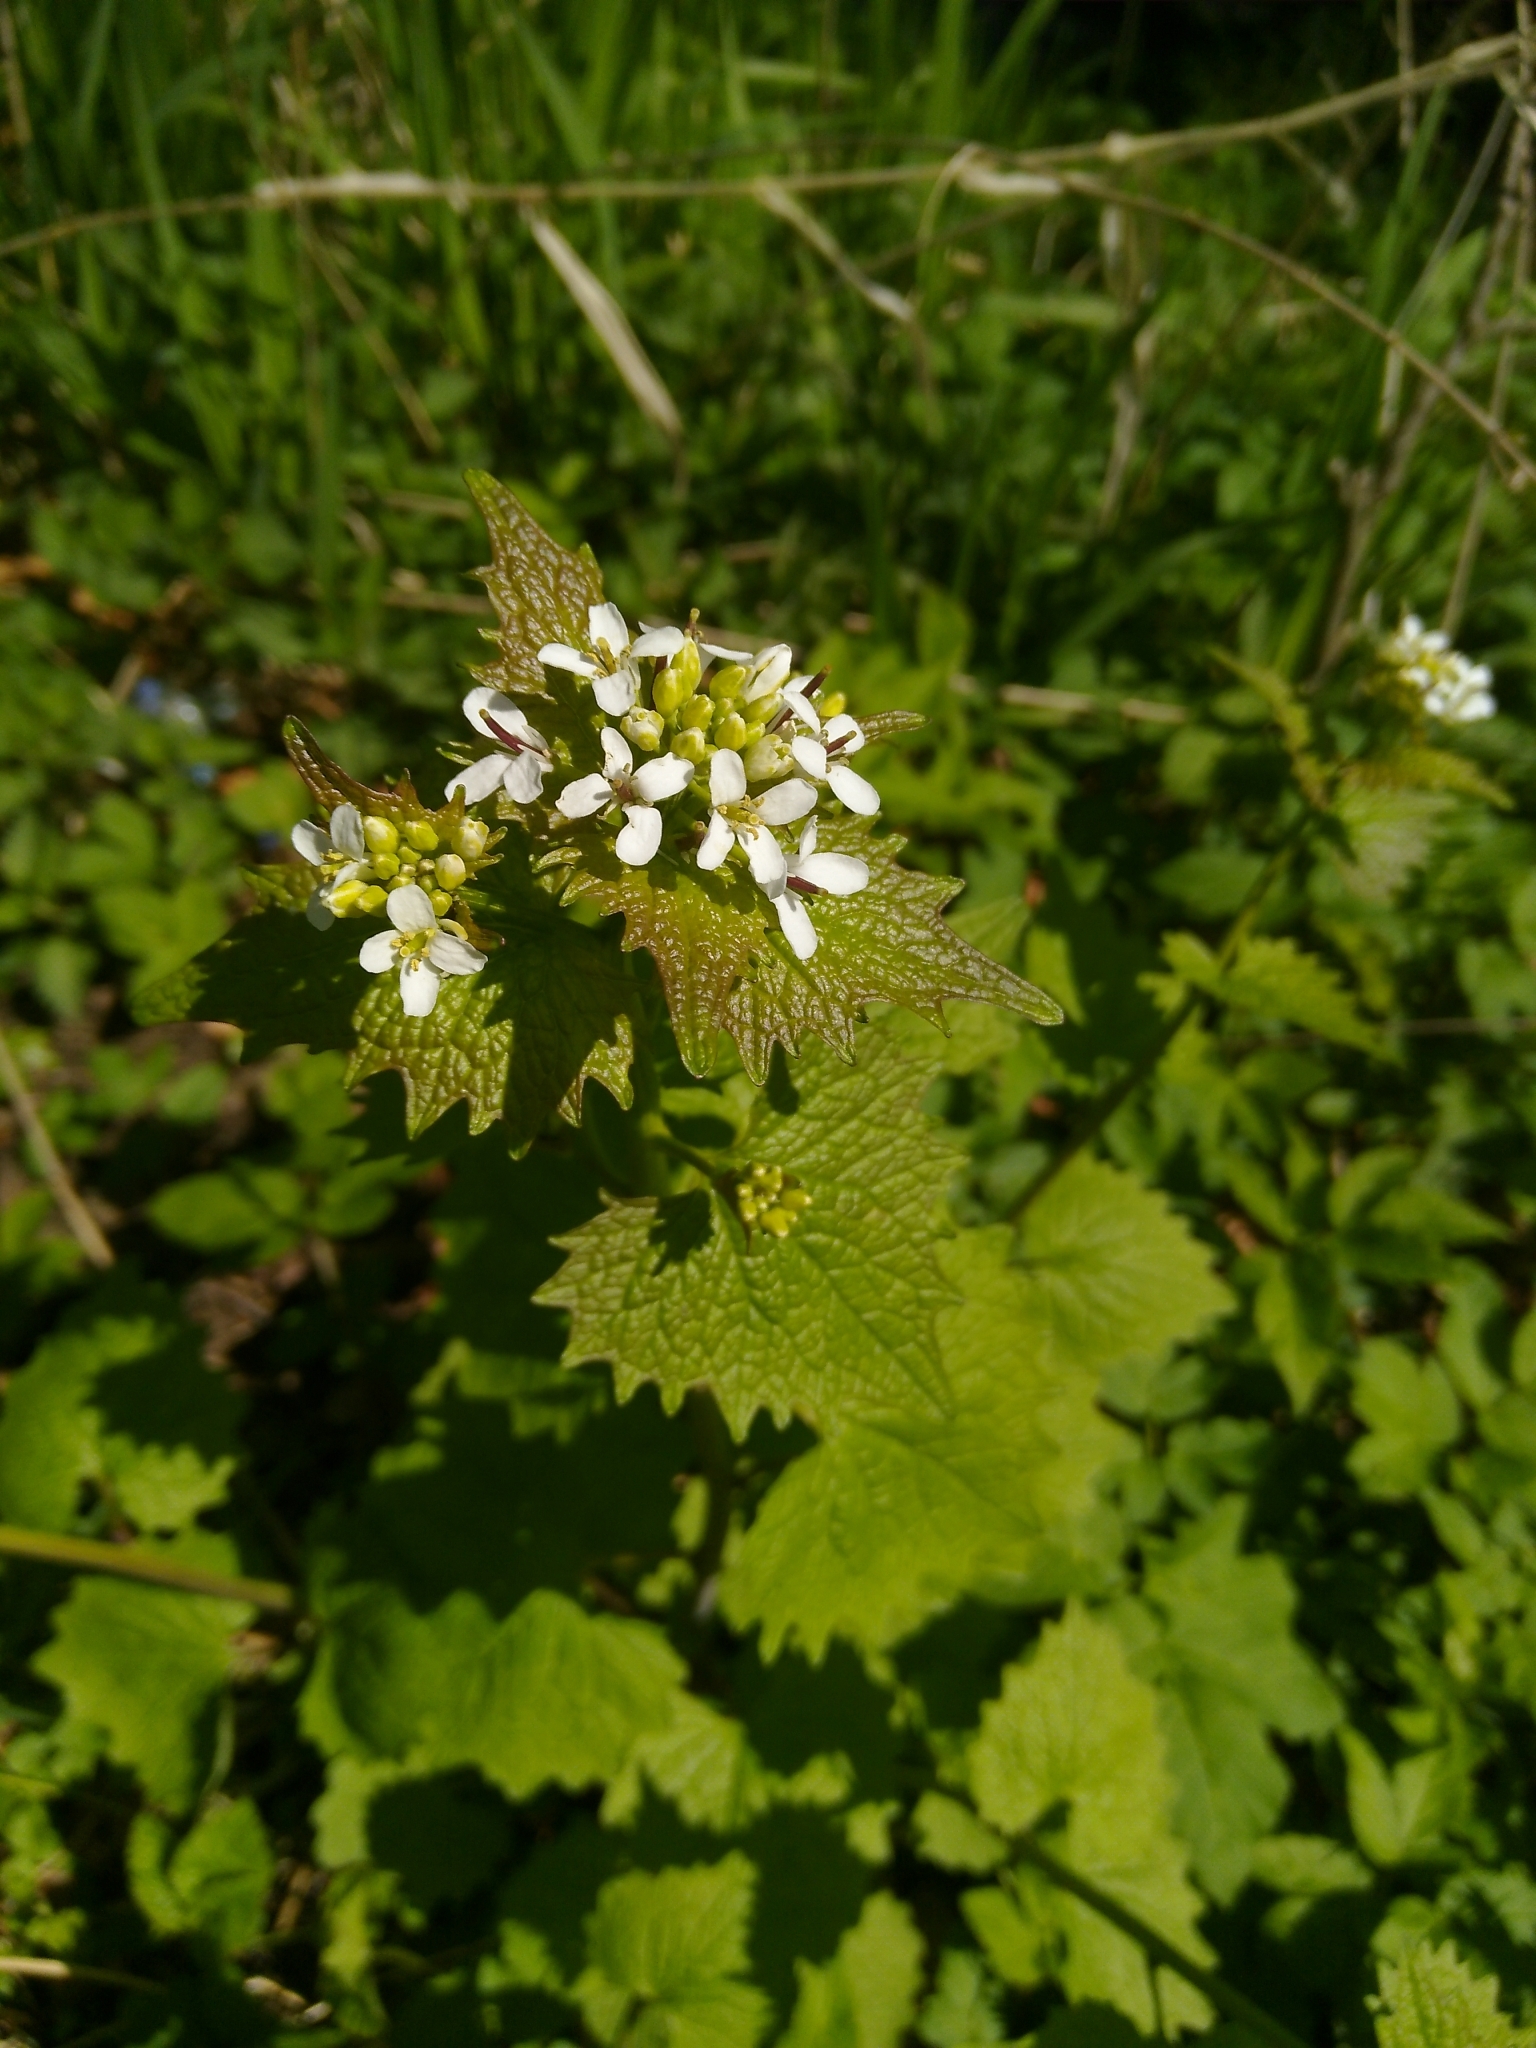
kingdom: Plantae
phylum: Tracheophyta
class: Magnoliopsida
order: Brassicales
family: Brassicaceae
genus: Alliaria
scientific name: Alliaria petiolata
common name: Garlic mustard
